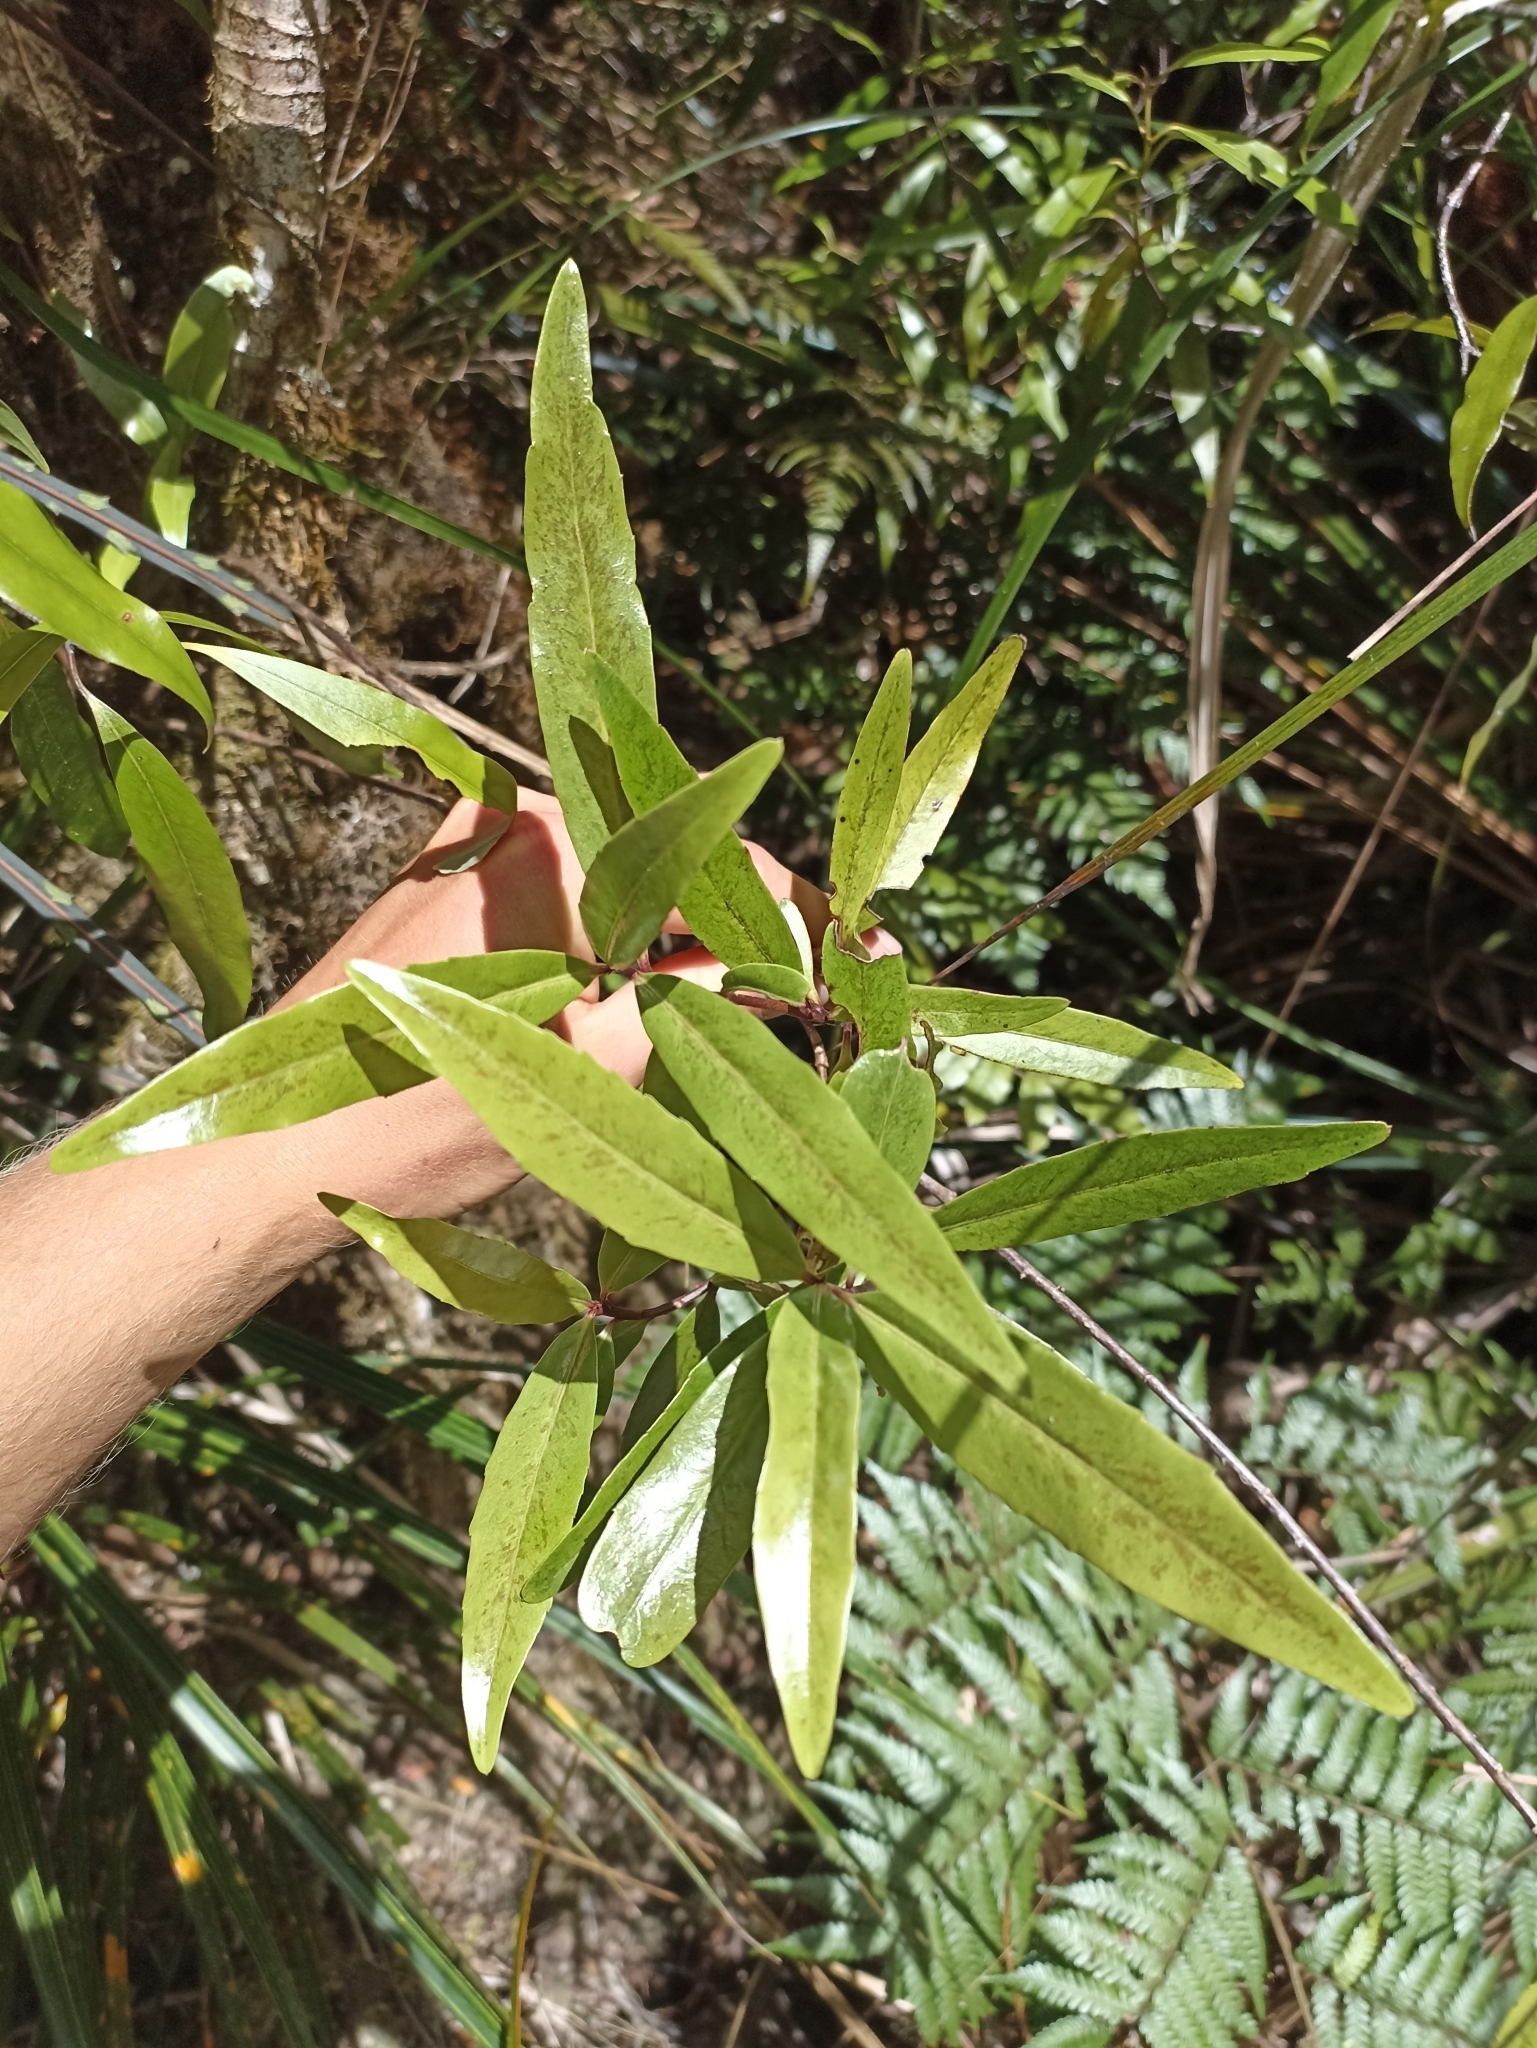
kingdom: Plantae
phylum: Tracheophyta
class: Magnoliopsida
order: Asterales
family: Alseuosmiaceae
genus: Alseuosmia
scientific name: Alseuosmia banksii
